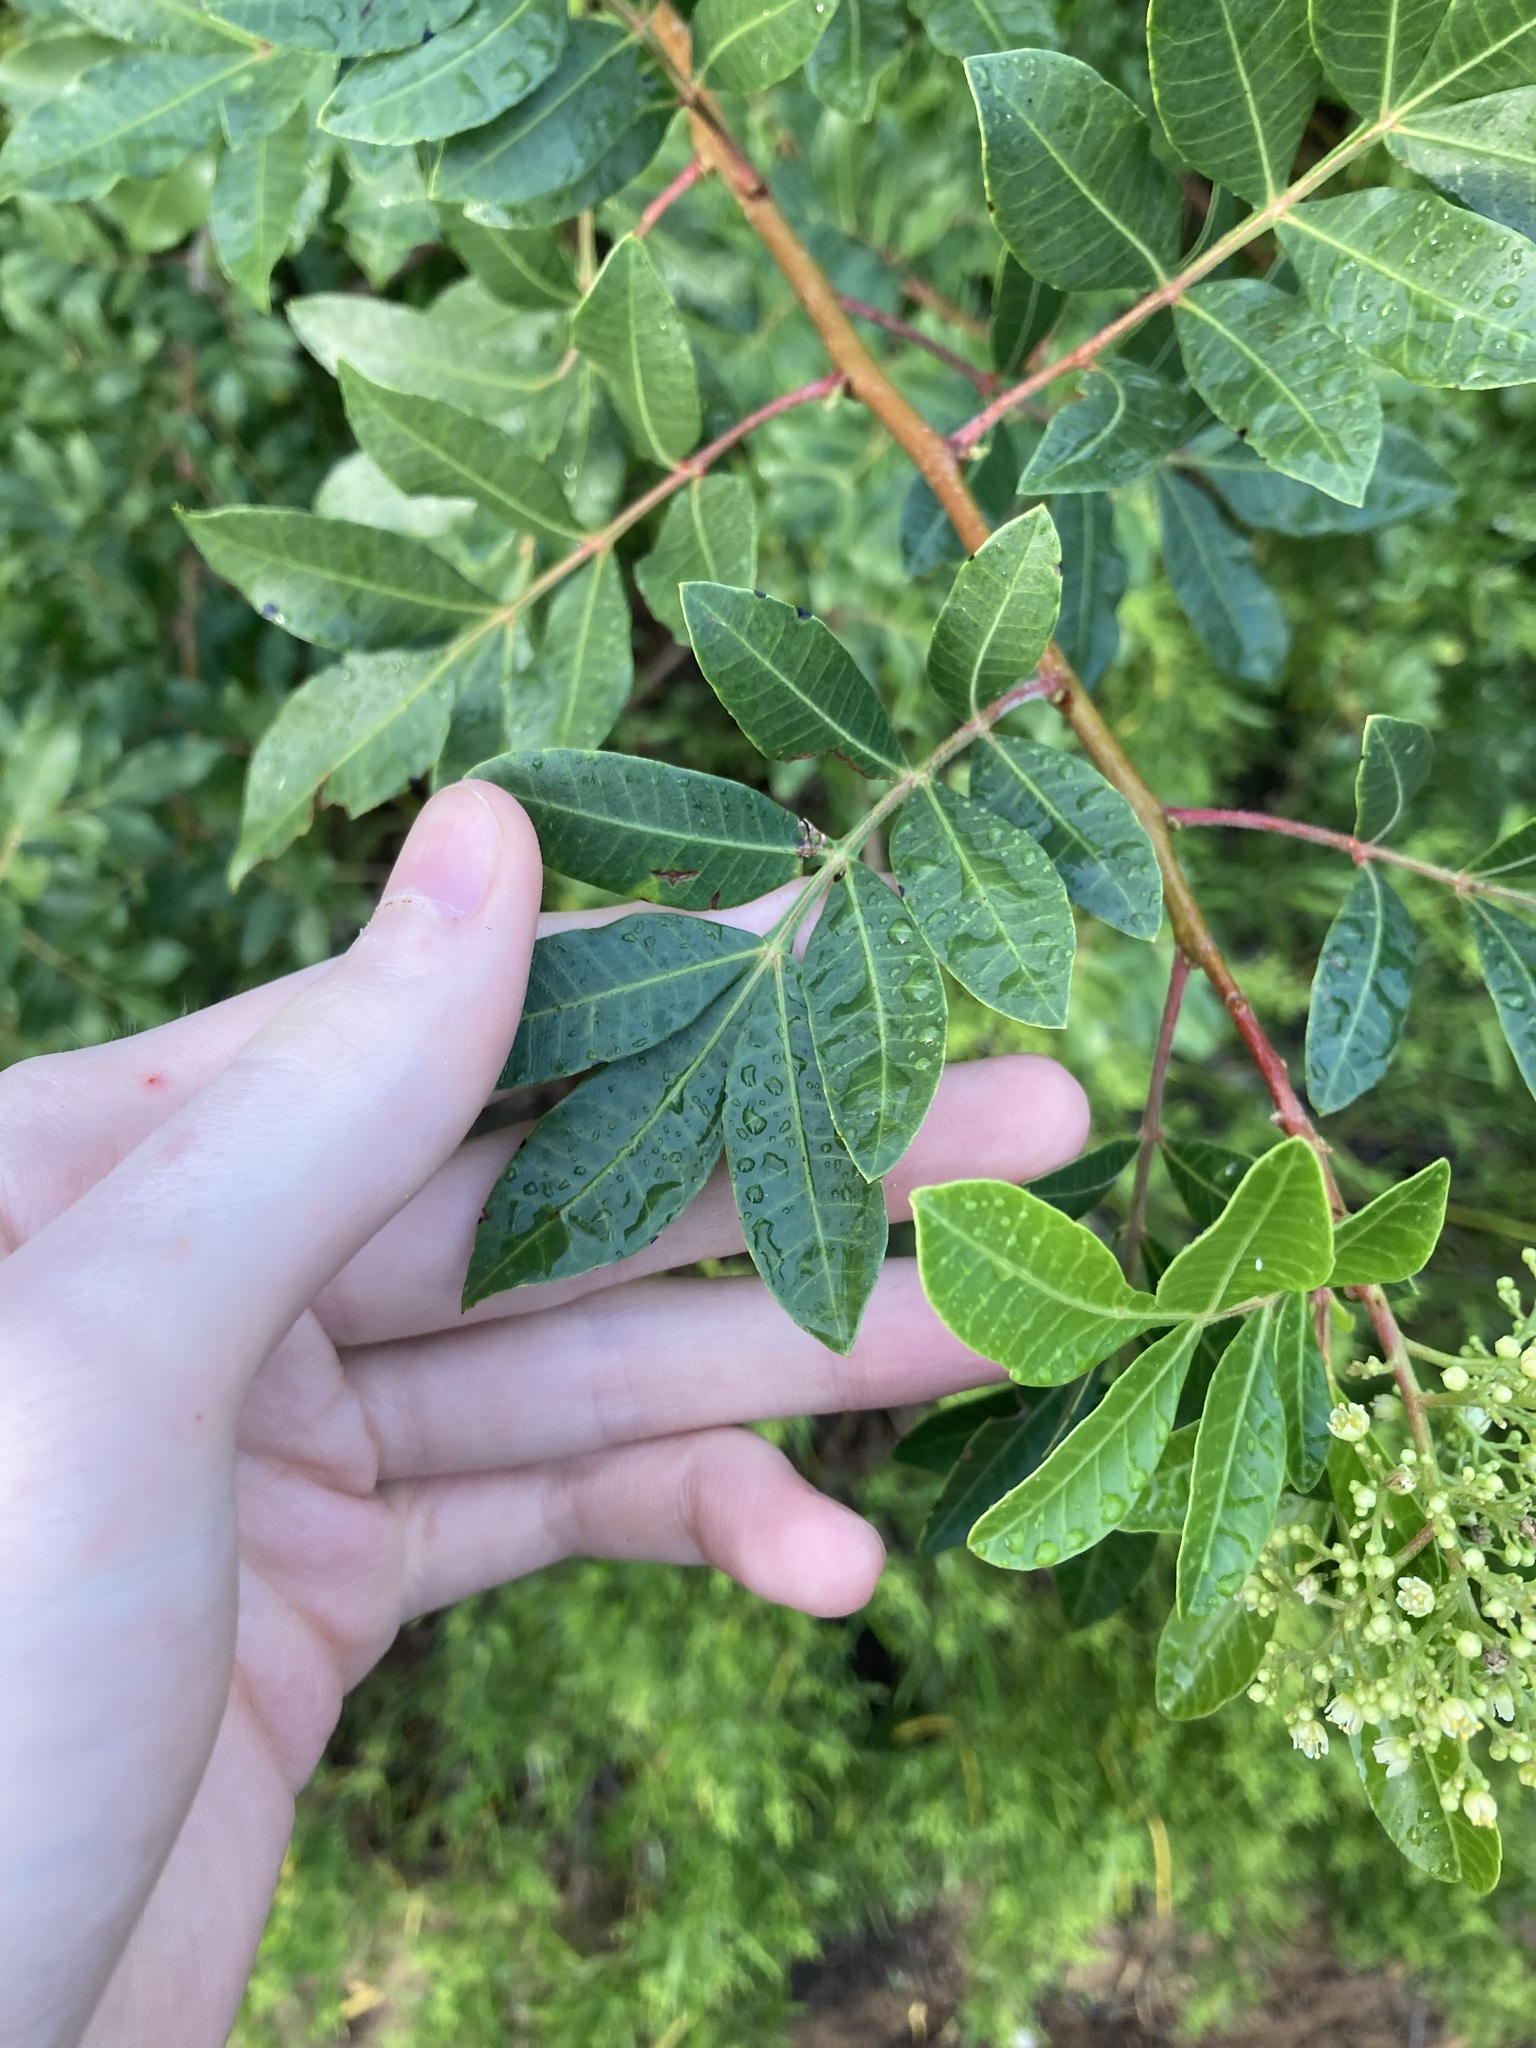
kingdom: Plantae
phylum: Tracheophyta
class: Magnoliopsida
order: Sapindales
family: Anacardiaceae
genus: Schinus
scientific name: Schinus terebinthifolia
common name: Brazilian peppertree
